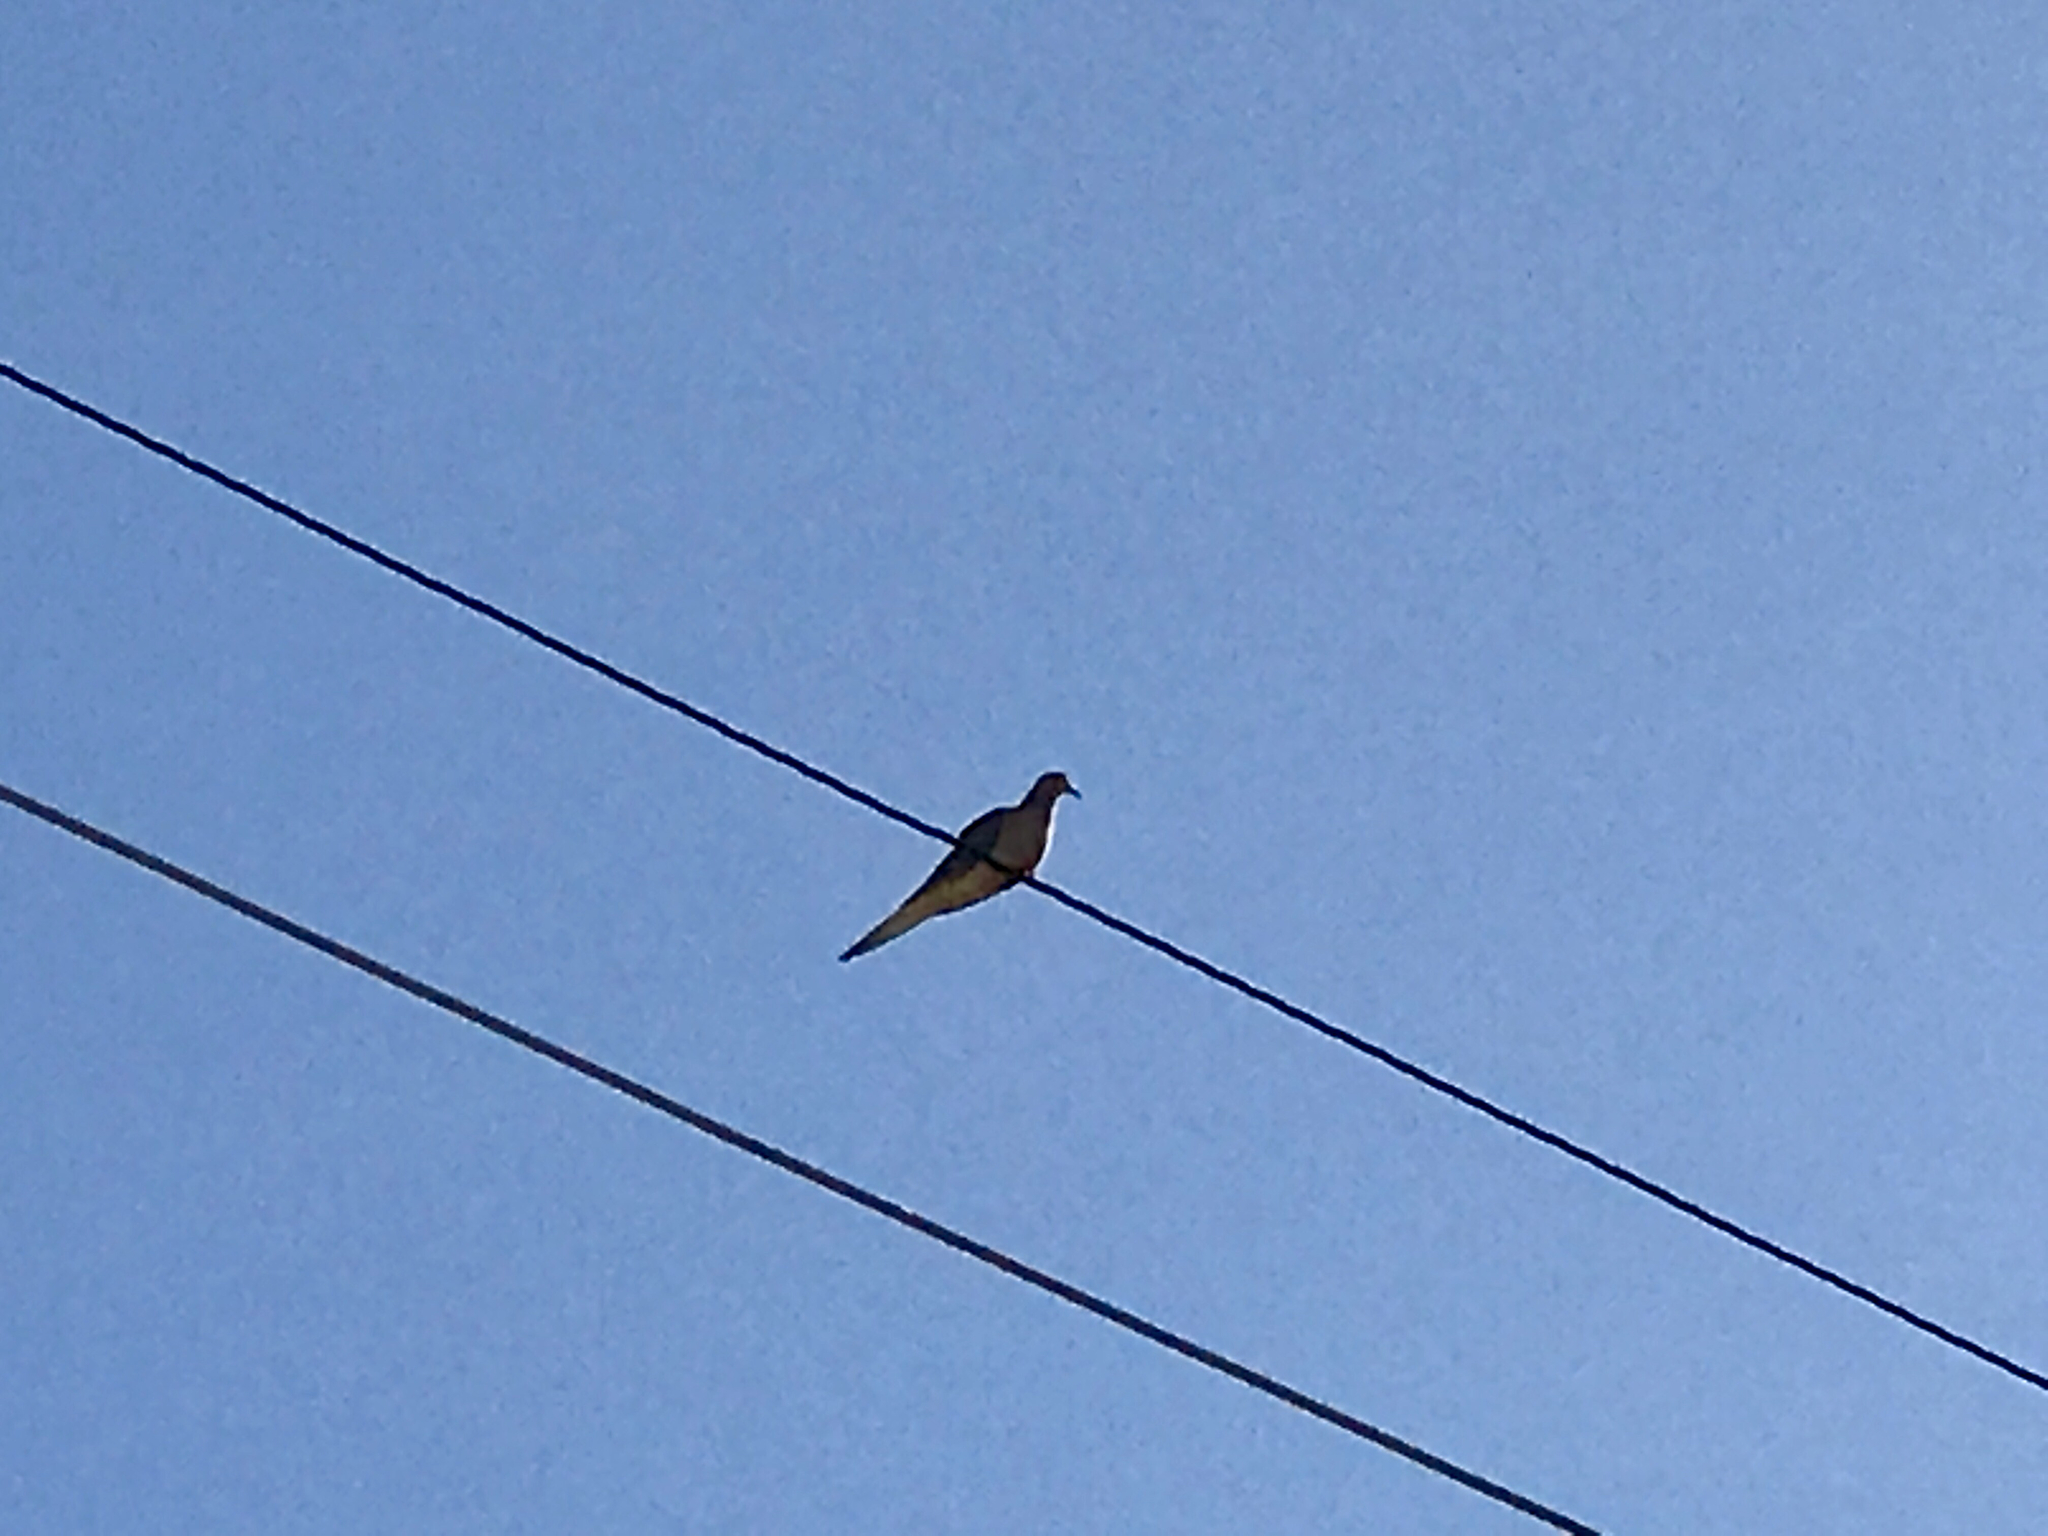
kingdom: Animalia
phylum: Chordata
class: Aves
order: Columbiformes
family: Columbidae
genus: Zenaida
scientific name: Zenaida macroura
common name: Mourning dove
